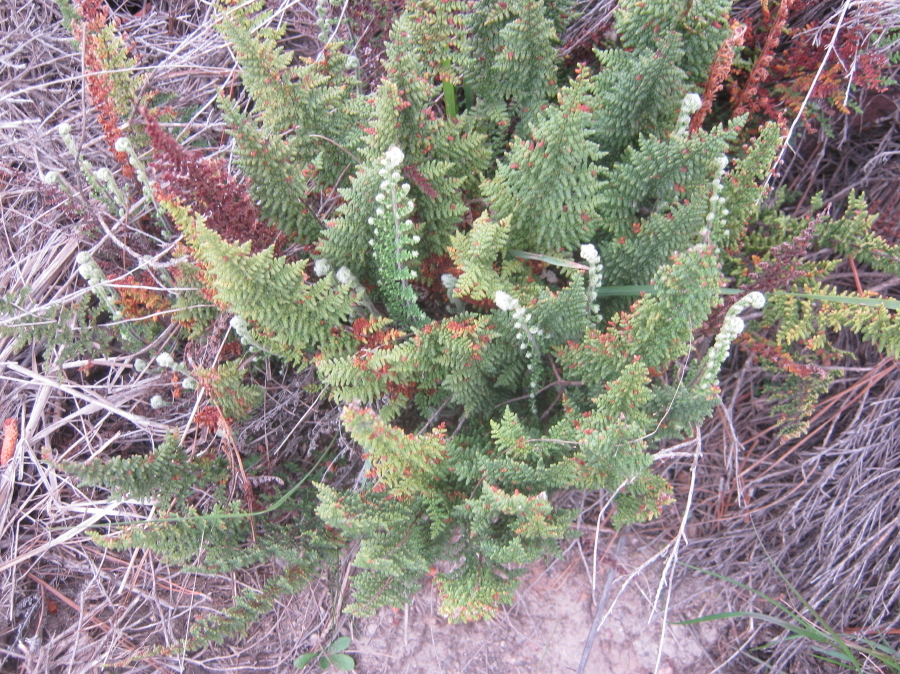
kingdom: Plantae
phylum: Tracheophyta
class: Polypodiopsida
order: Polypodiales
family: Pteridaceae
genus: Cheilanthes
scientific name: Cheilanthes hirta
